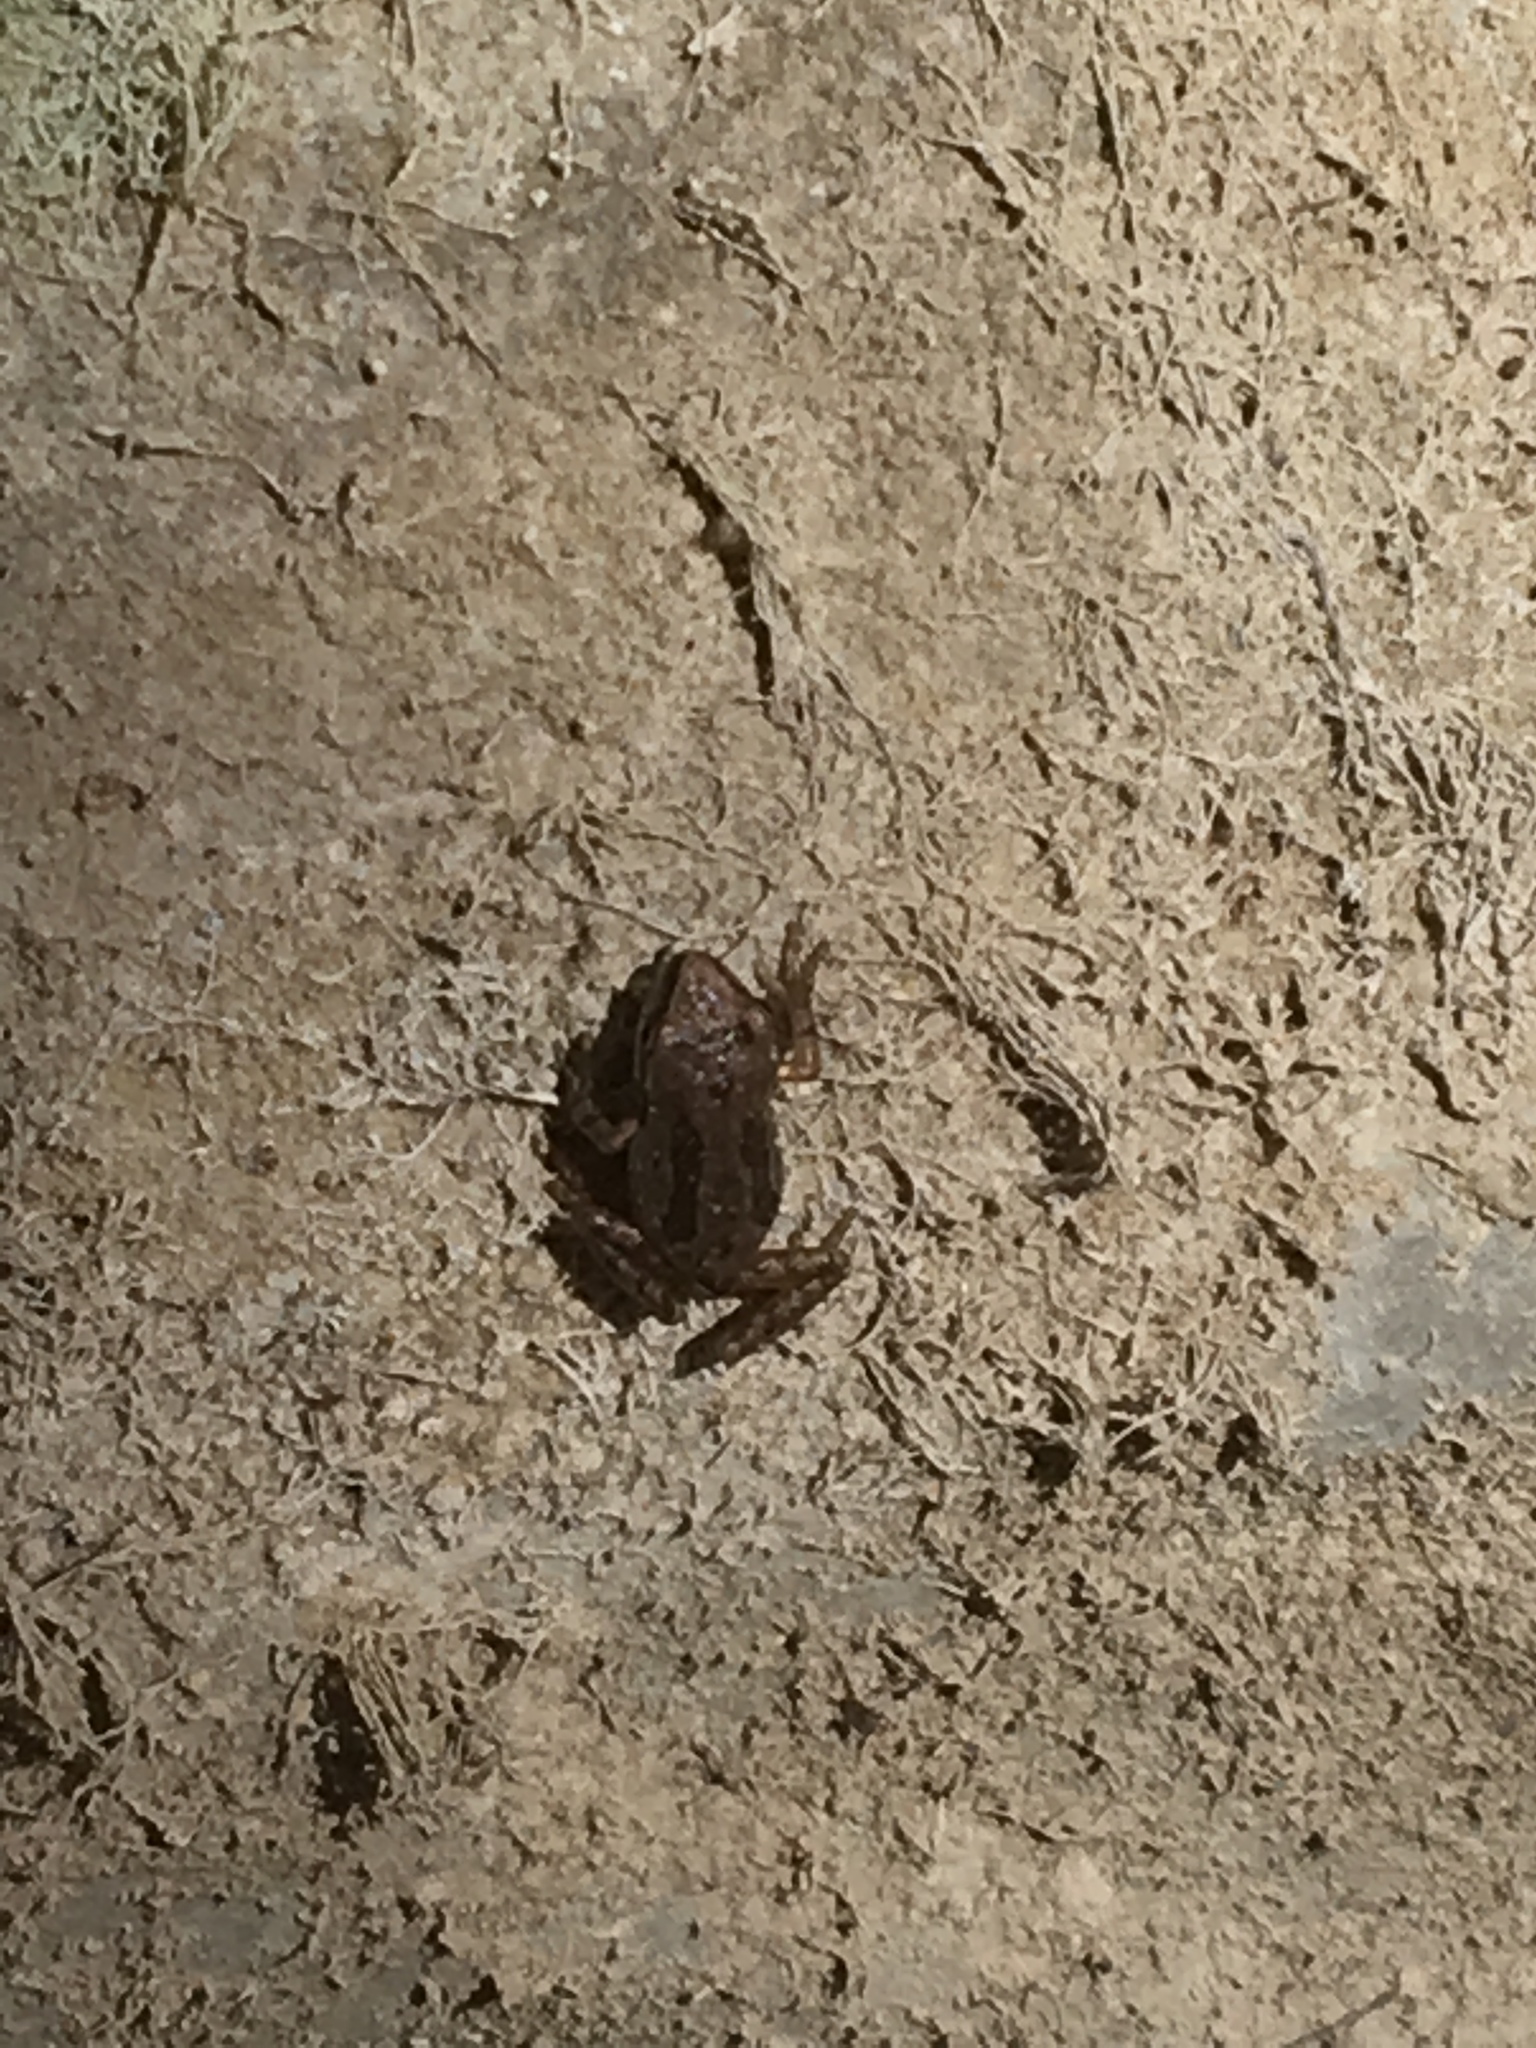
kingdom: Animalia
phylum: Chordata
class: Amphibia
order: Anura
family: Hylidae
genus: Pseudacris
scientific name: Pseudacris regilla
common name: Pacific chorus frog
